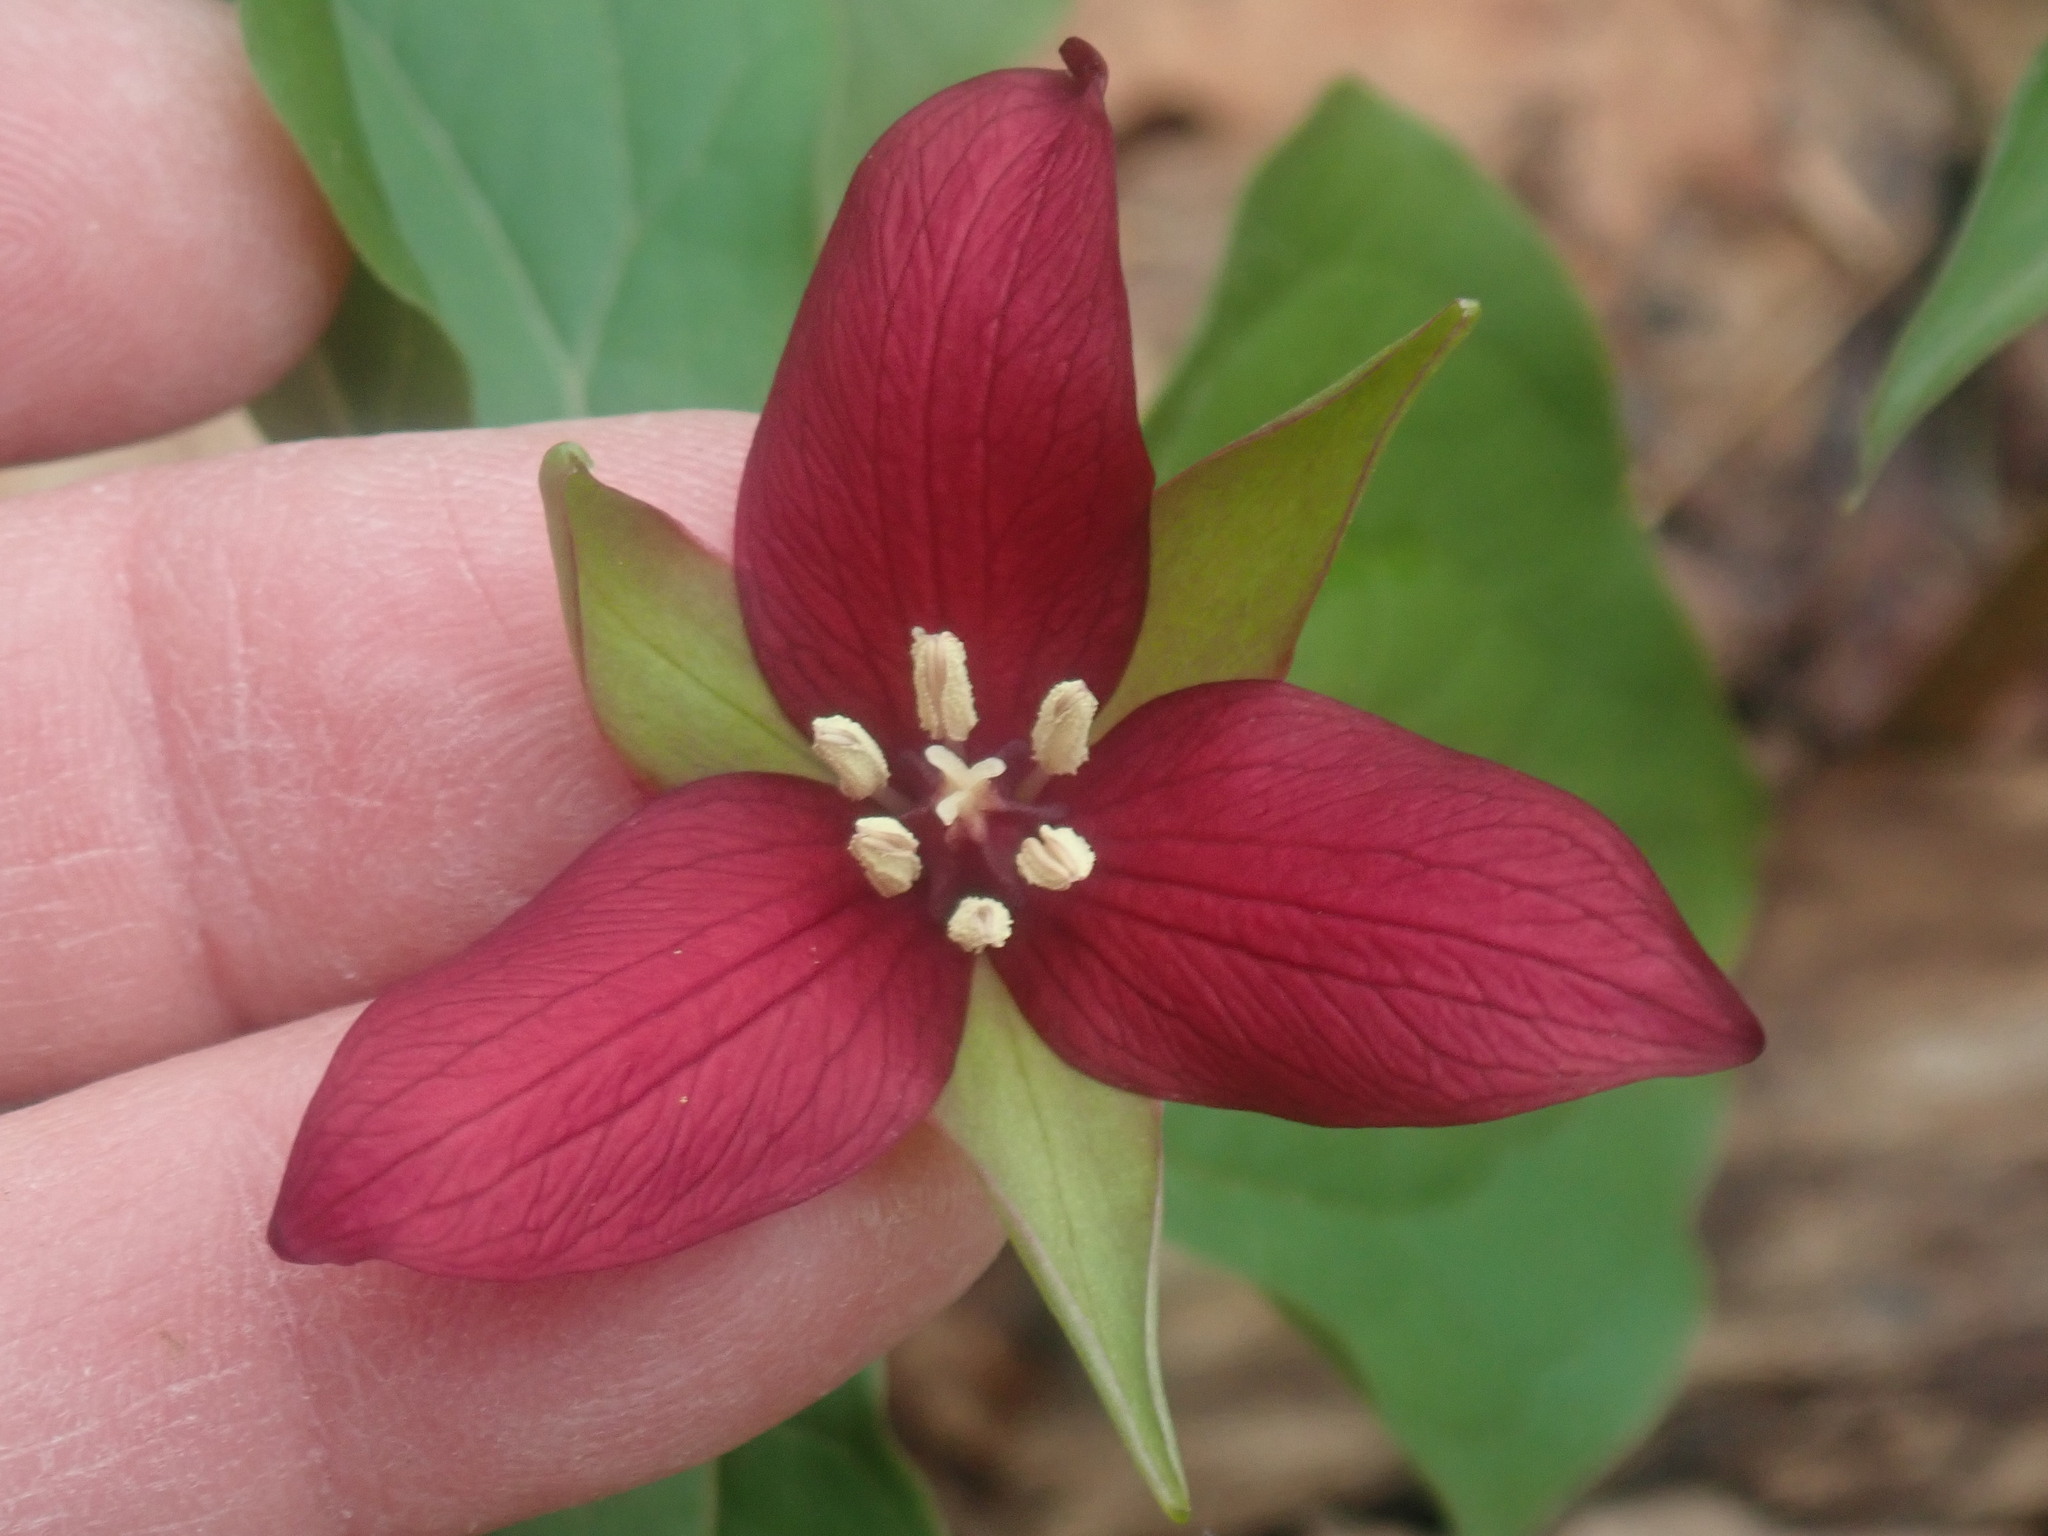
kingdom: Plantae
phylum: Tracheophyta
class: Liliopsida
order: Liliales
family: Melanthiaceae
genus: Trillium
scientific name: Trillium erectum
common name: Purple trillium
